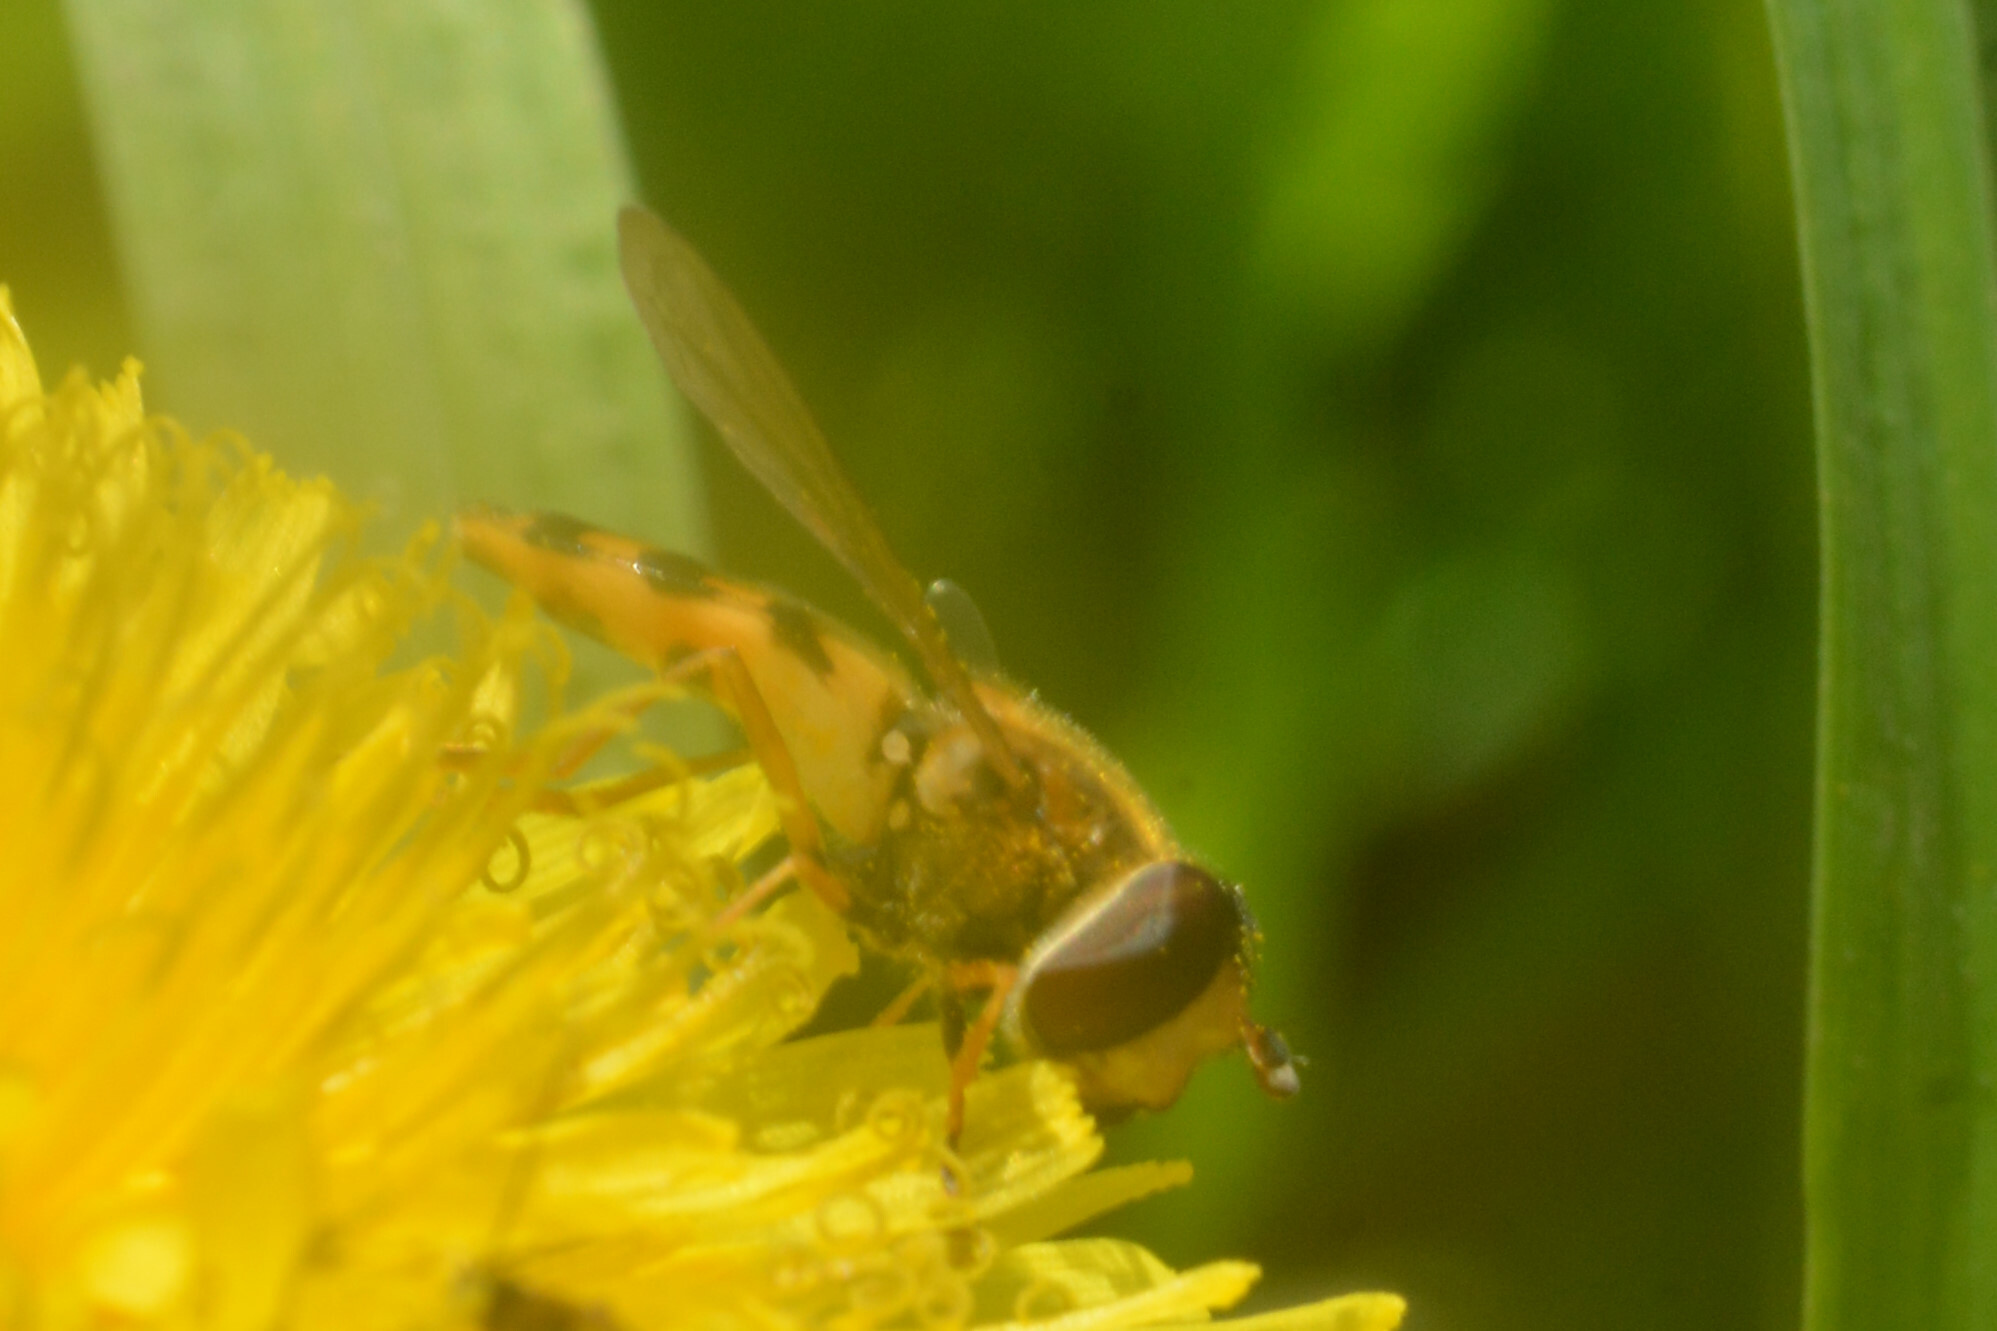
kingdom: Animalia
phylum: Arthropoda
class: Insecta
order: Diptera
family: Syrphidae
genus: Eupeodes
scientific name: Eupeodes latifasciatus
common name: Variable aphideater
